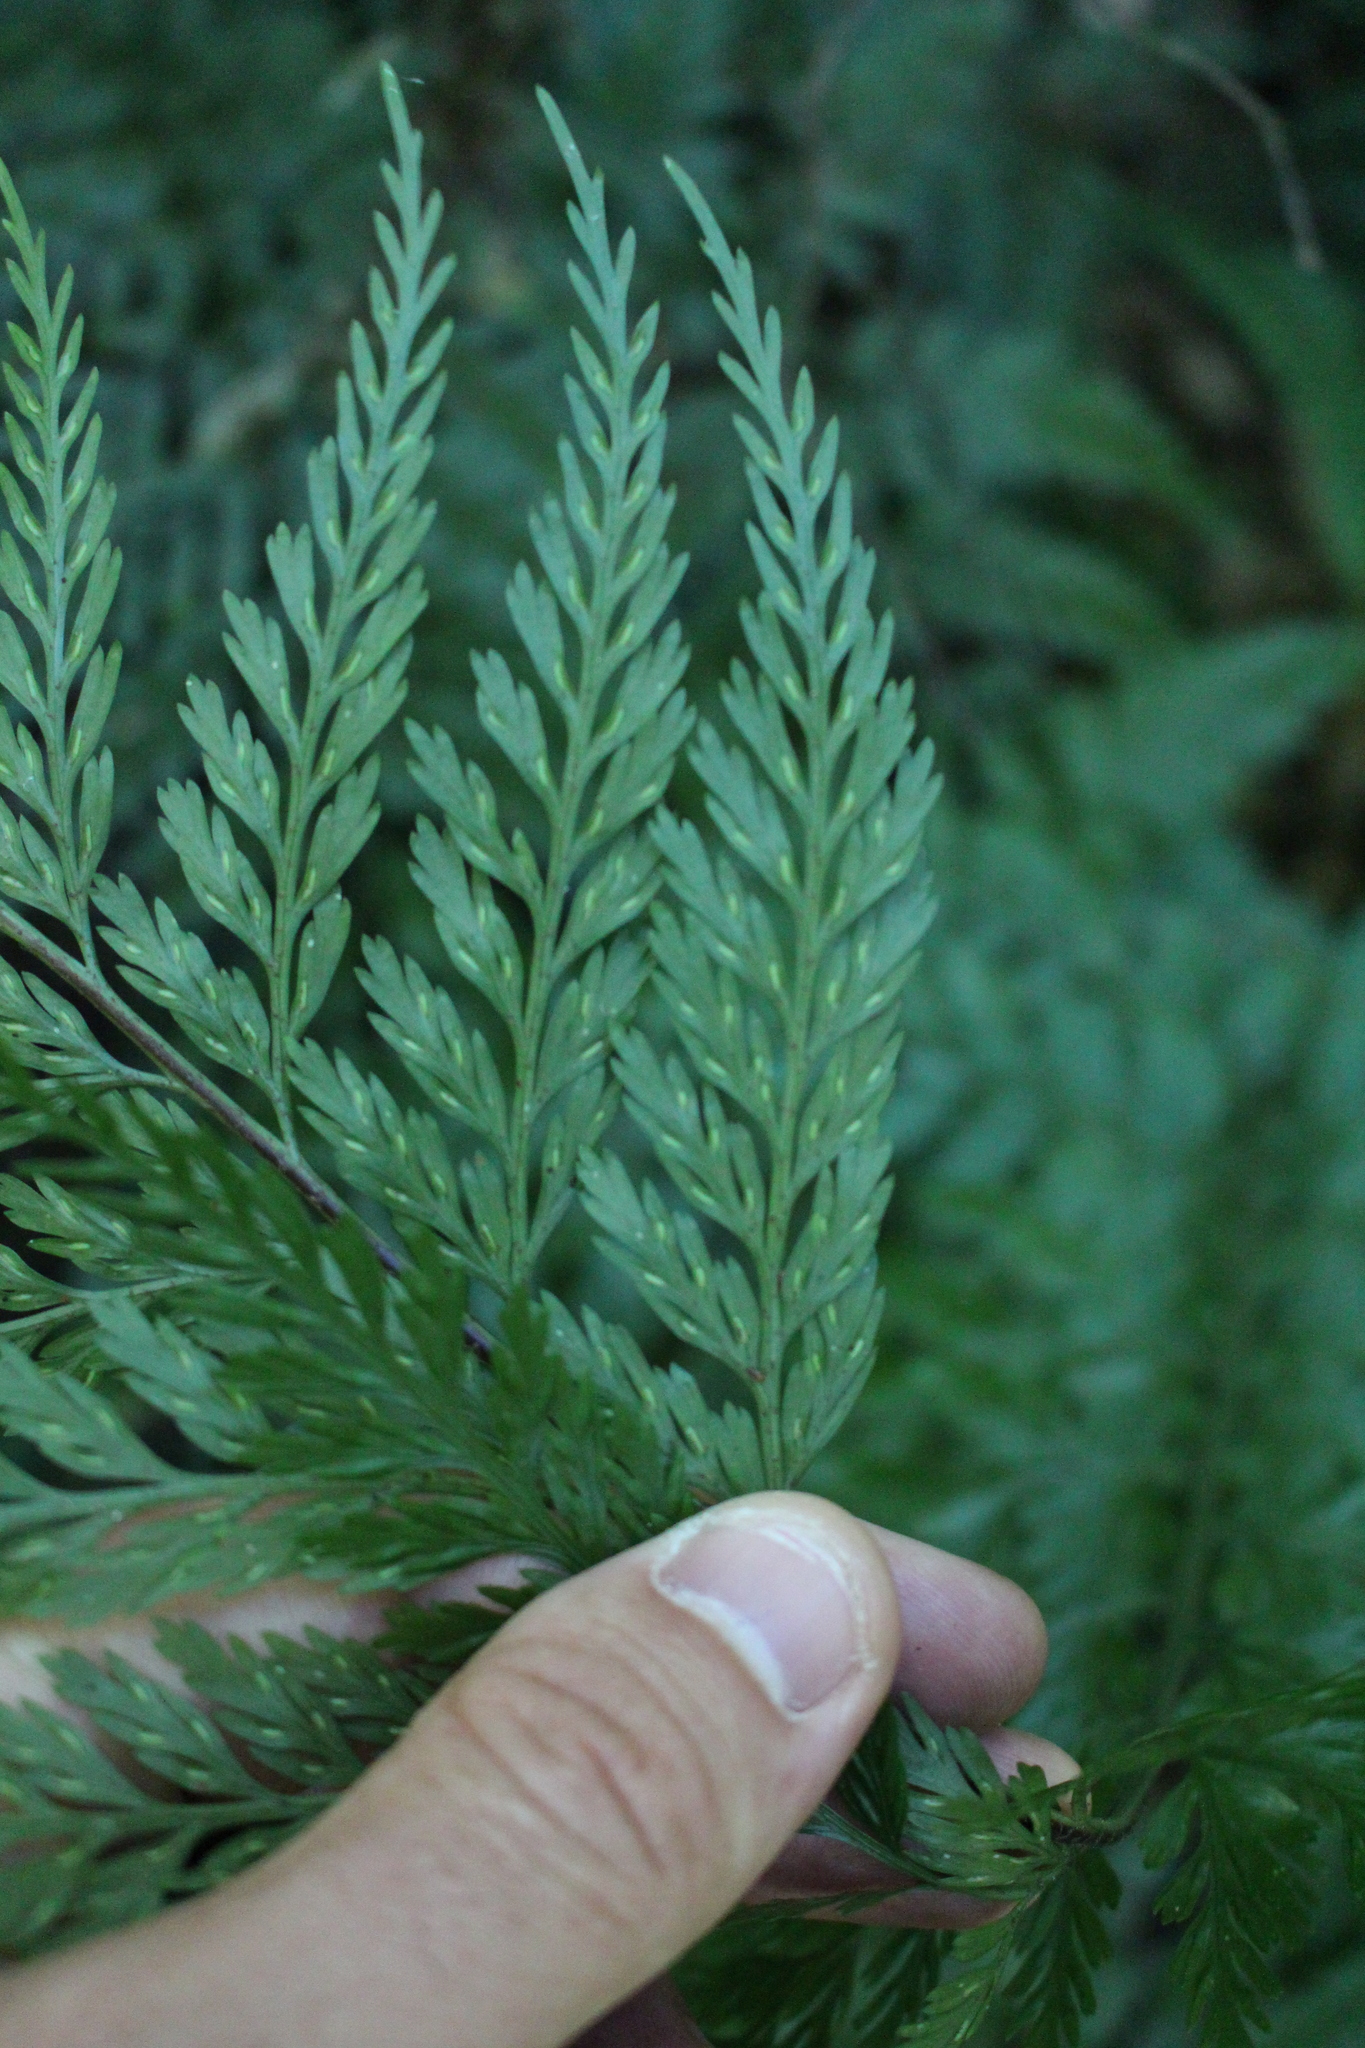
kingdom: Plantae
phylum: Tracheophyta
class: Polypodiopsida
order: Polypodiales
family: Aspleniaceae
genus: Asplenium
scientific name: Asplenium
